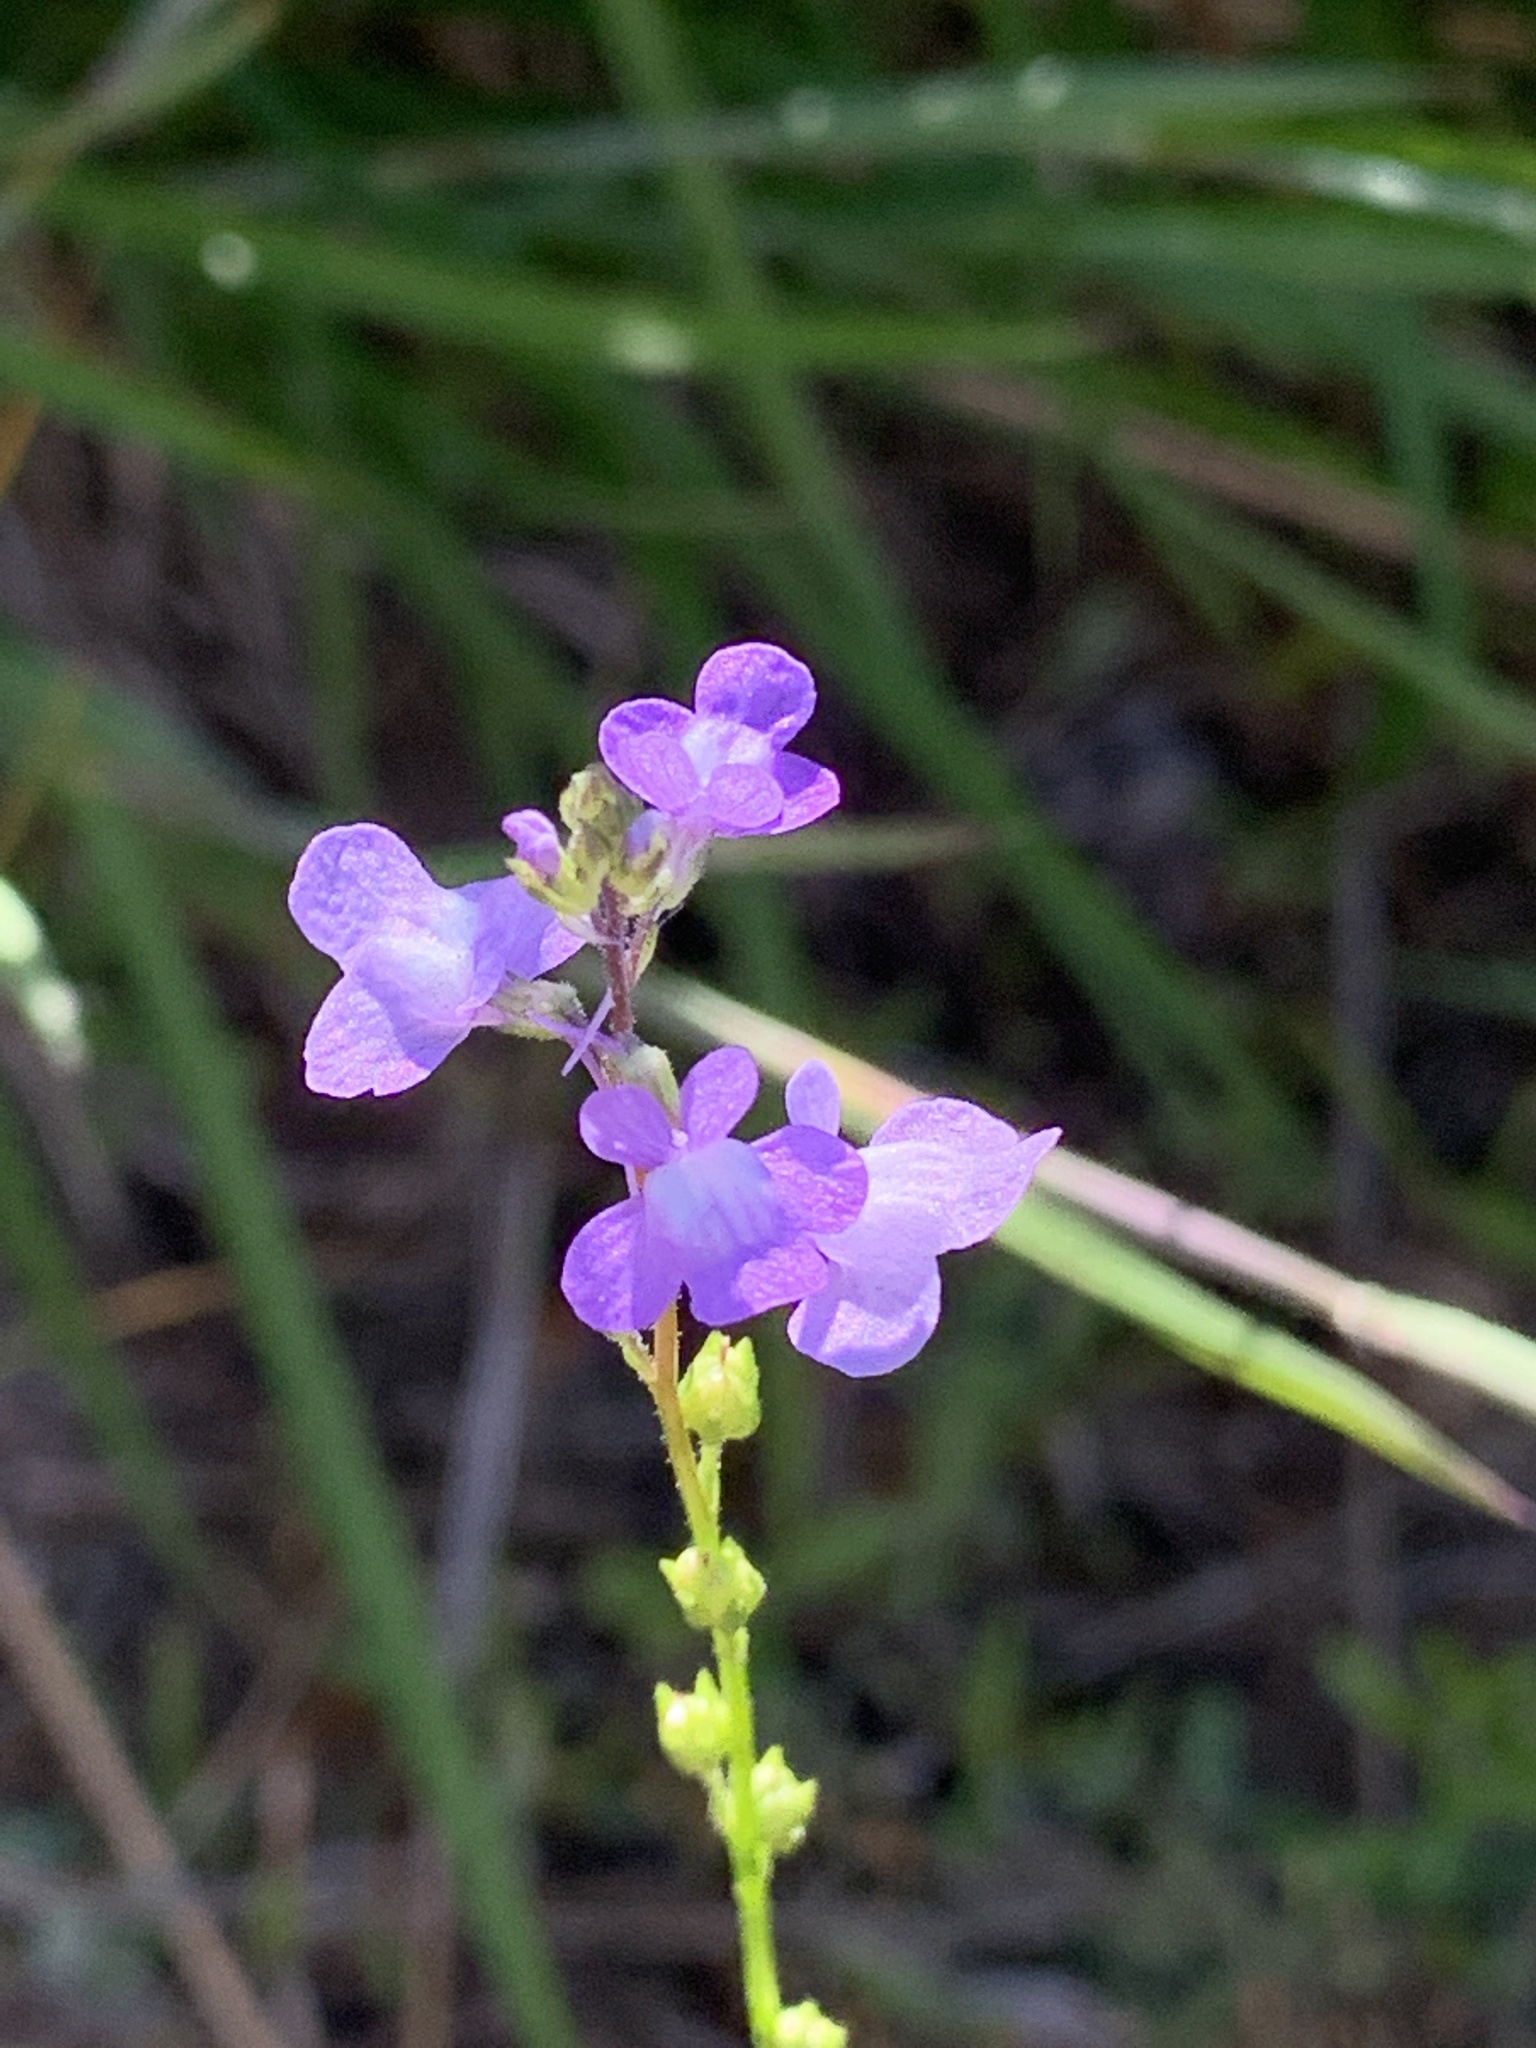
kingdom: Plantae
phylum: Tracheophyta
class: Magnoliopsida
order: Lamiales
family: Plantaginaceae
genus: Nuttallanthus
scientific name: Nuttallanthus canadensis
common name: Blue toadflax
